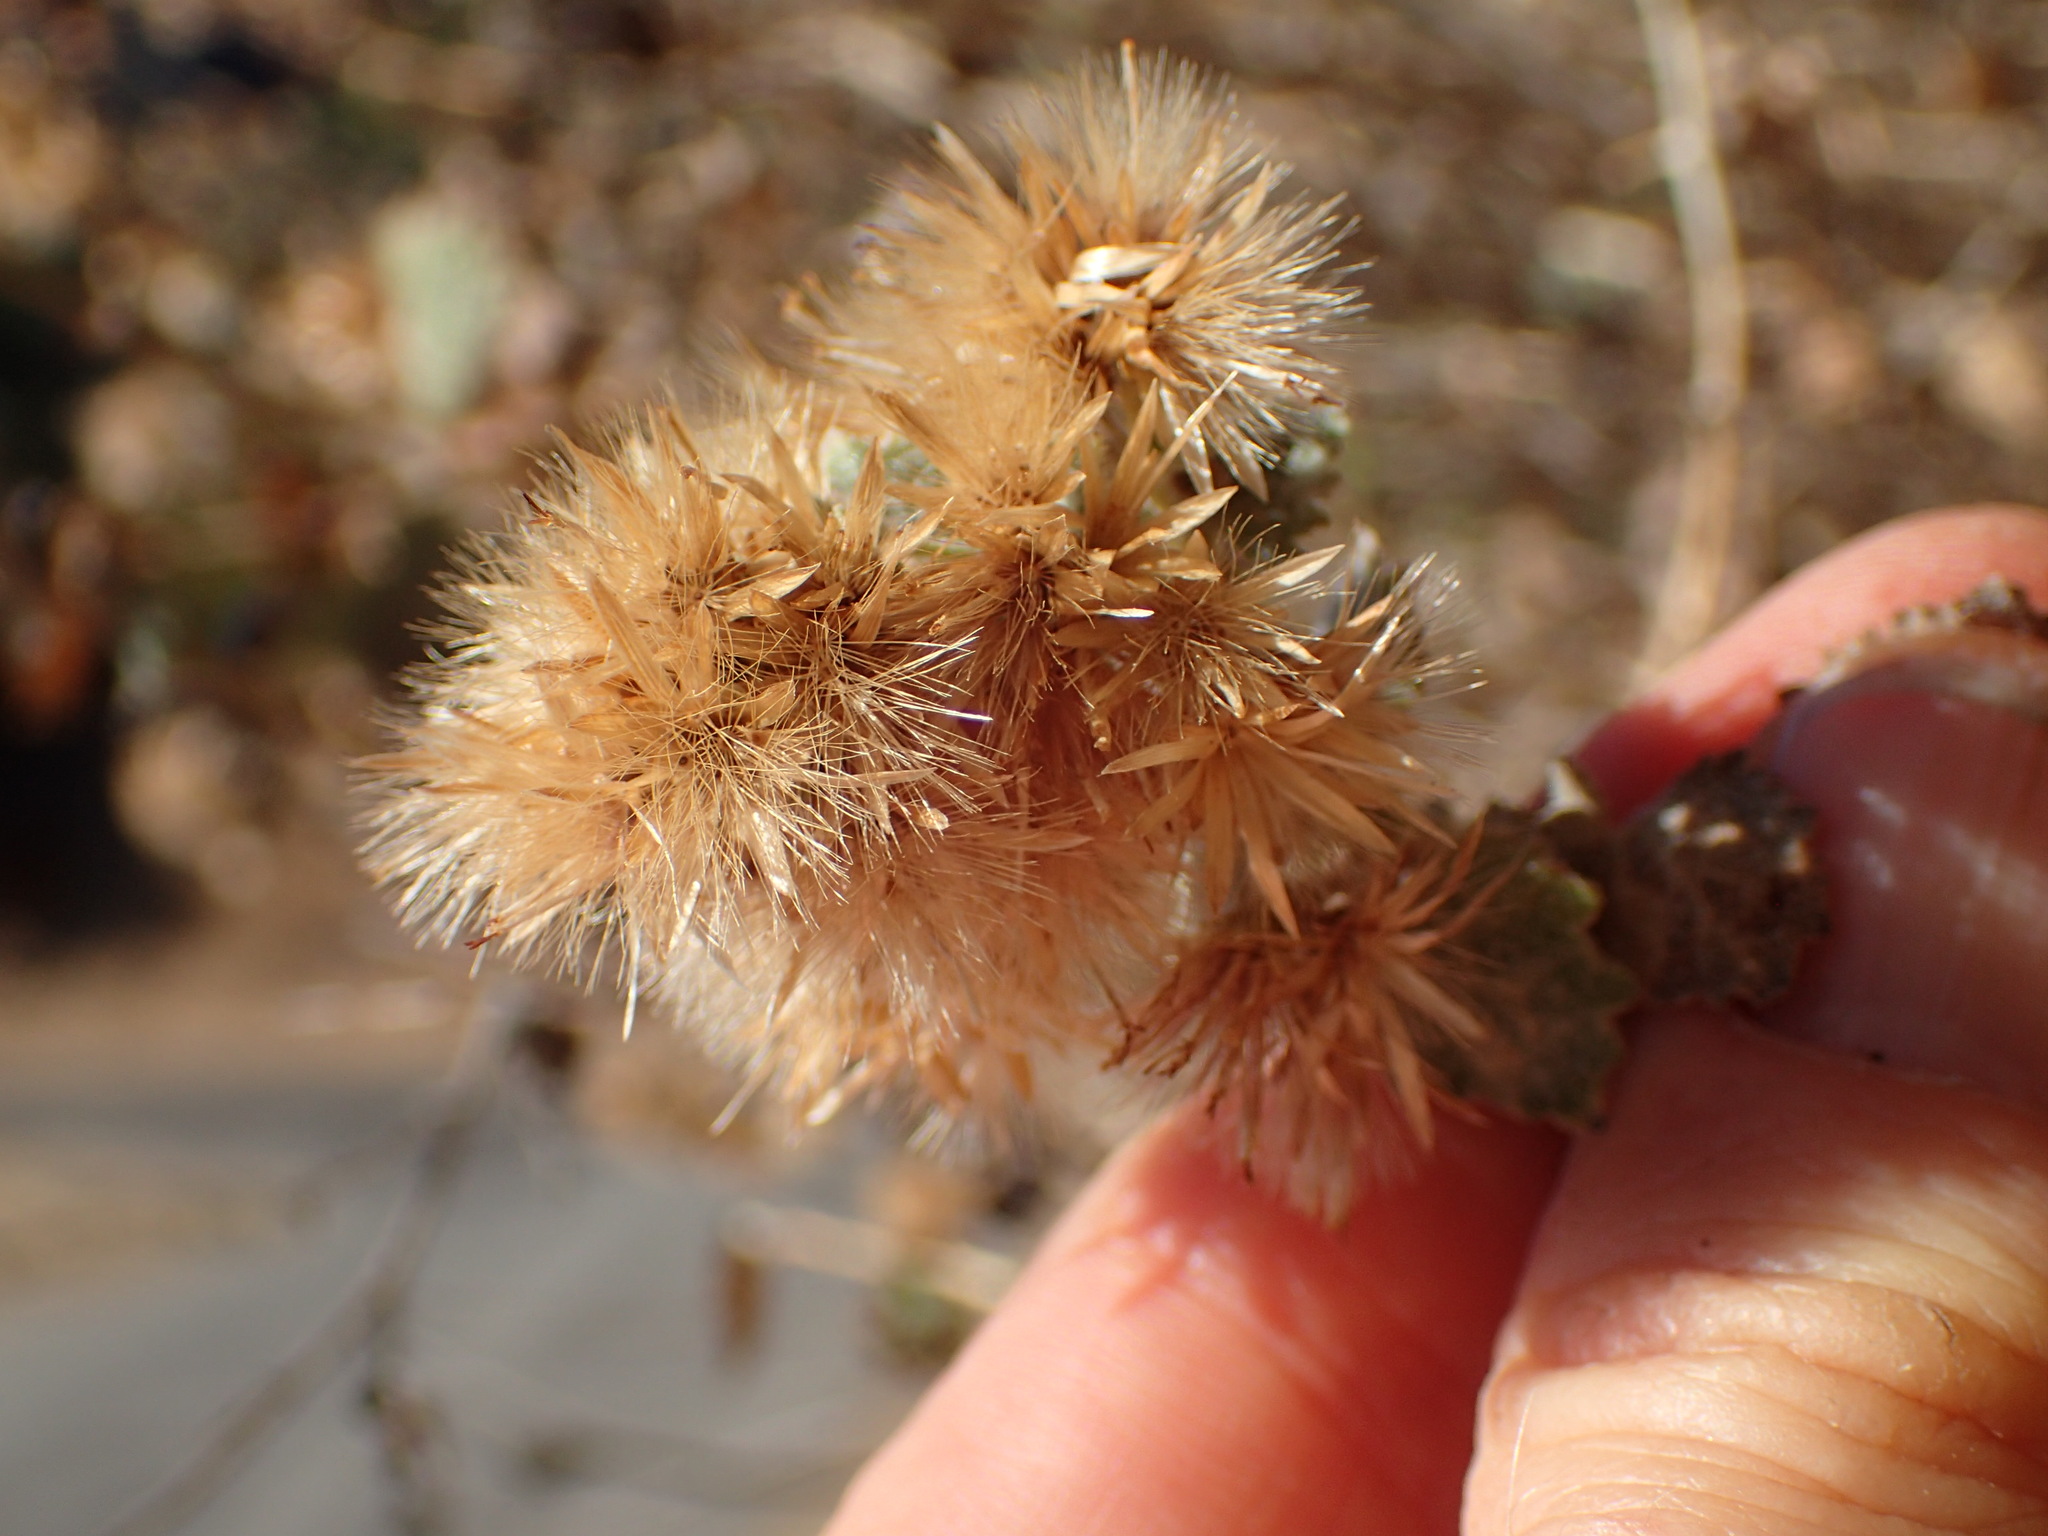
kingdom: Plantae
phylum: Tracheophyta
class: Magnoliopsida
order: Asterales
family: Asteraceae
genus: Brickellia
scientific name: Brickellia californica
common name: California brickellbush
